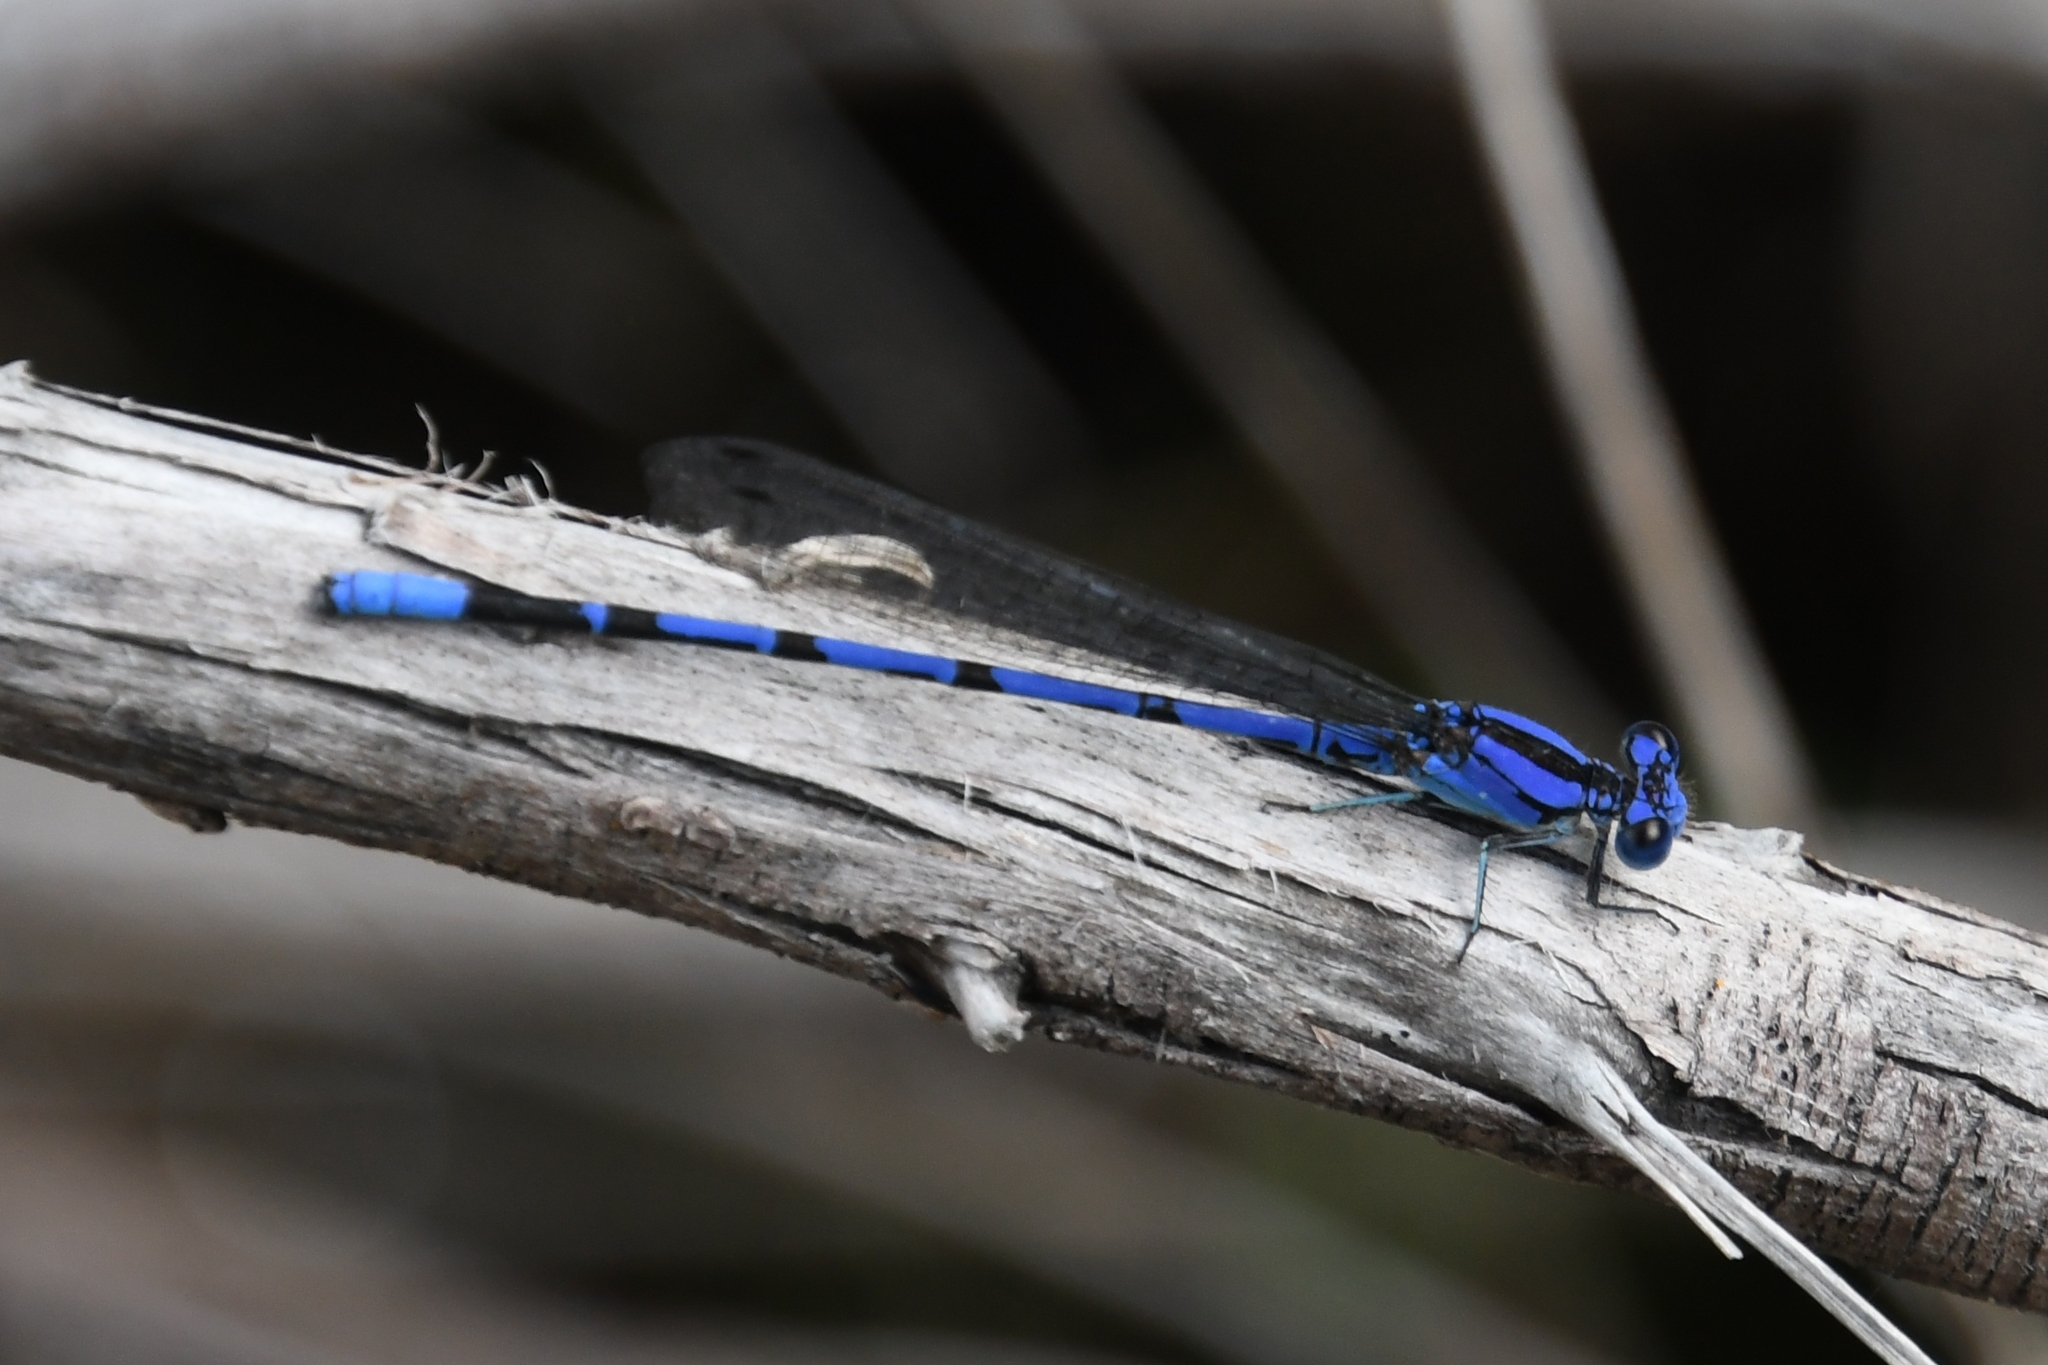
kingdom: Animalia
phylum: Arthropoda
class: Insecta
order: Odonata
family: Coenagrionidae
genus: Argia
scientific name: Argia extranea
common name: Spine-tipped dancer
